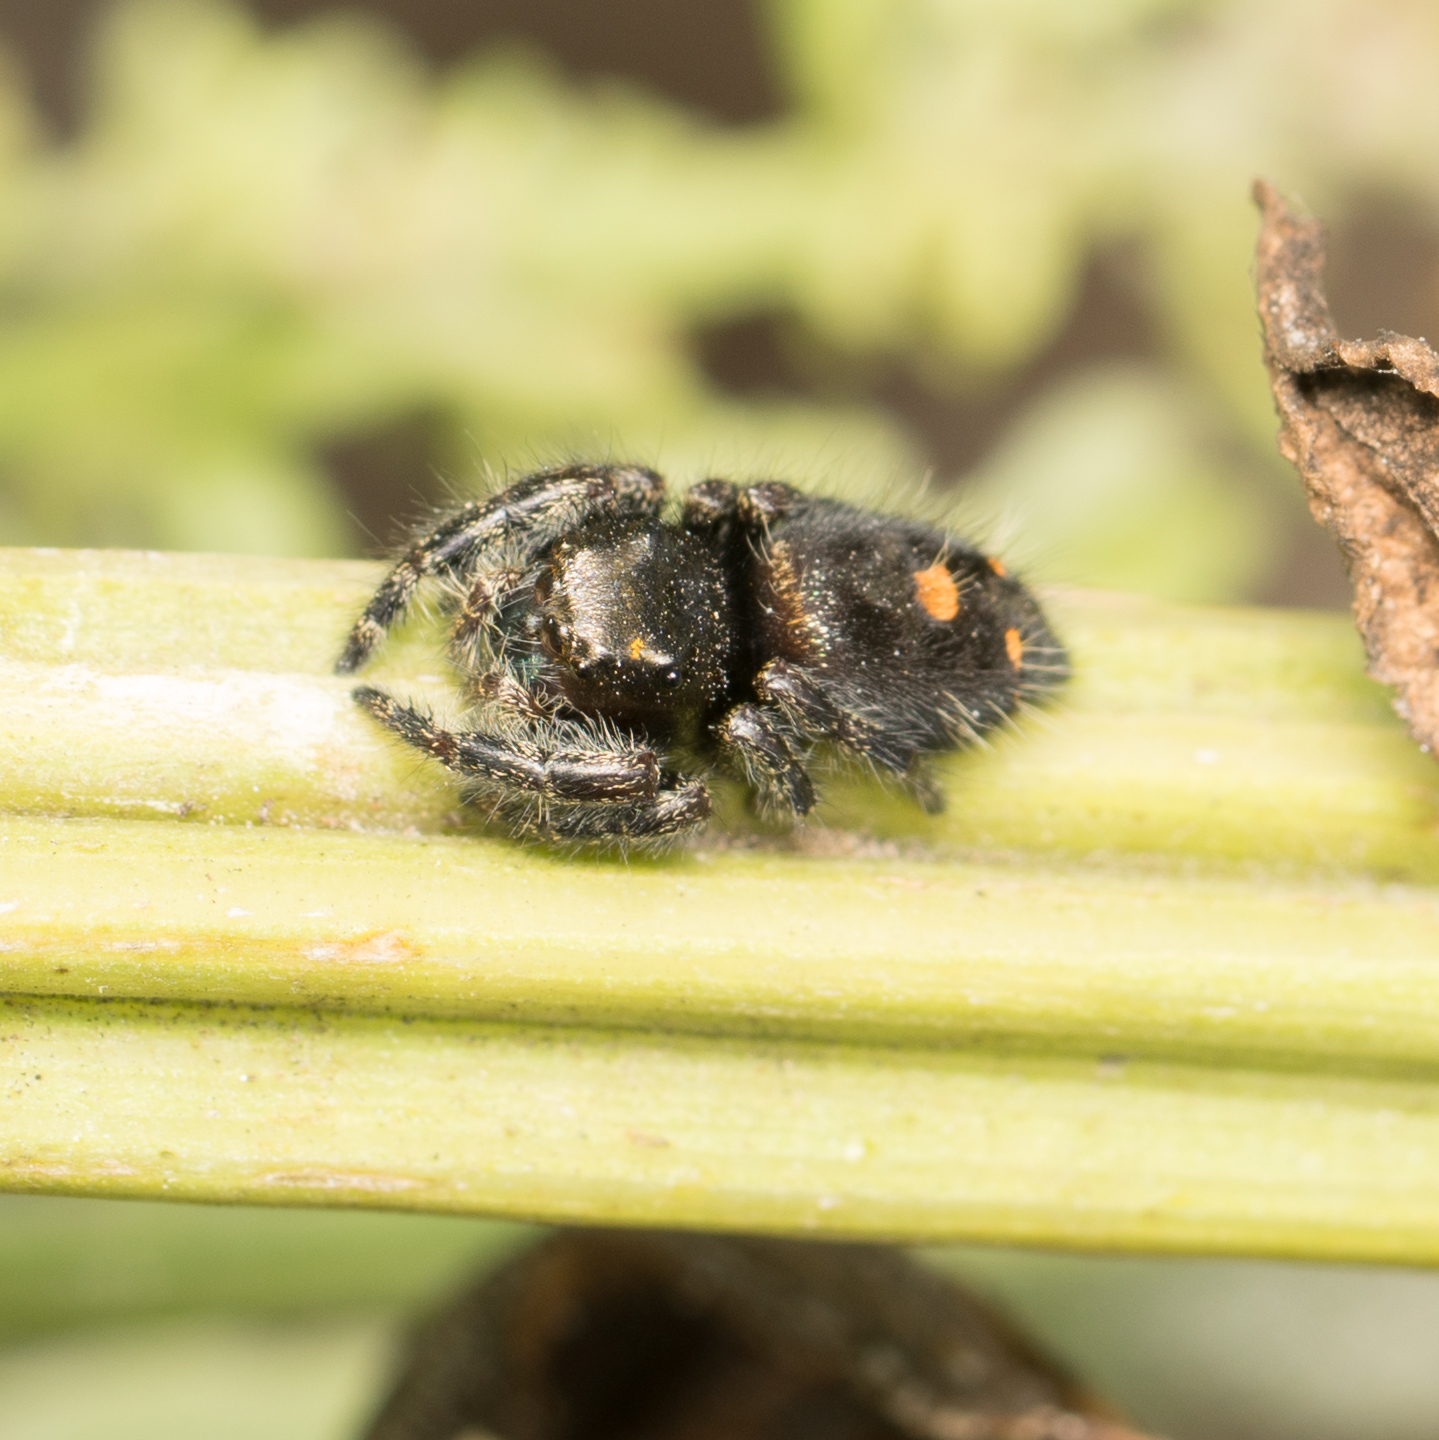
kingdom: Animalia
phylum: Arthropoda
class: Arachnida
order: Araneae
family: Salticidae
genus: Phidippus
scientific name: Phidippus audax
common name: Bold jumper
